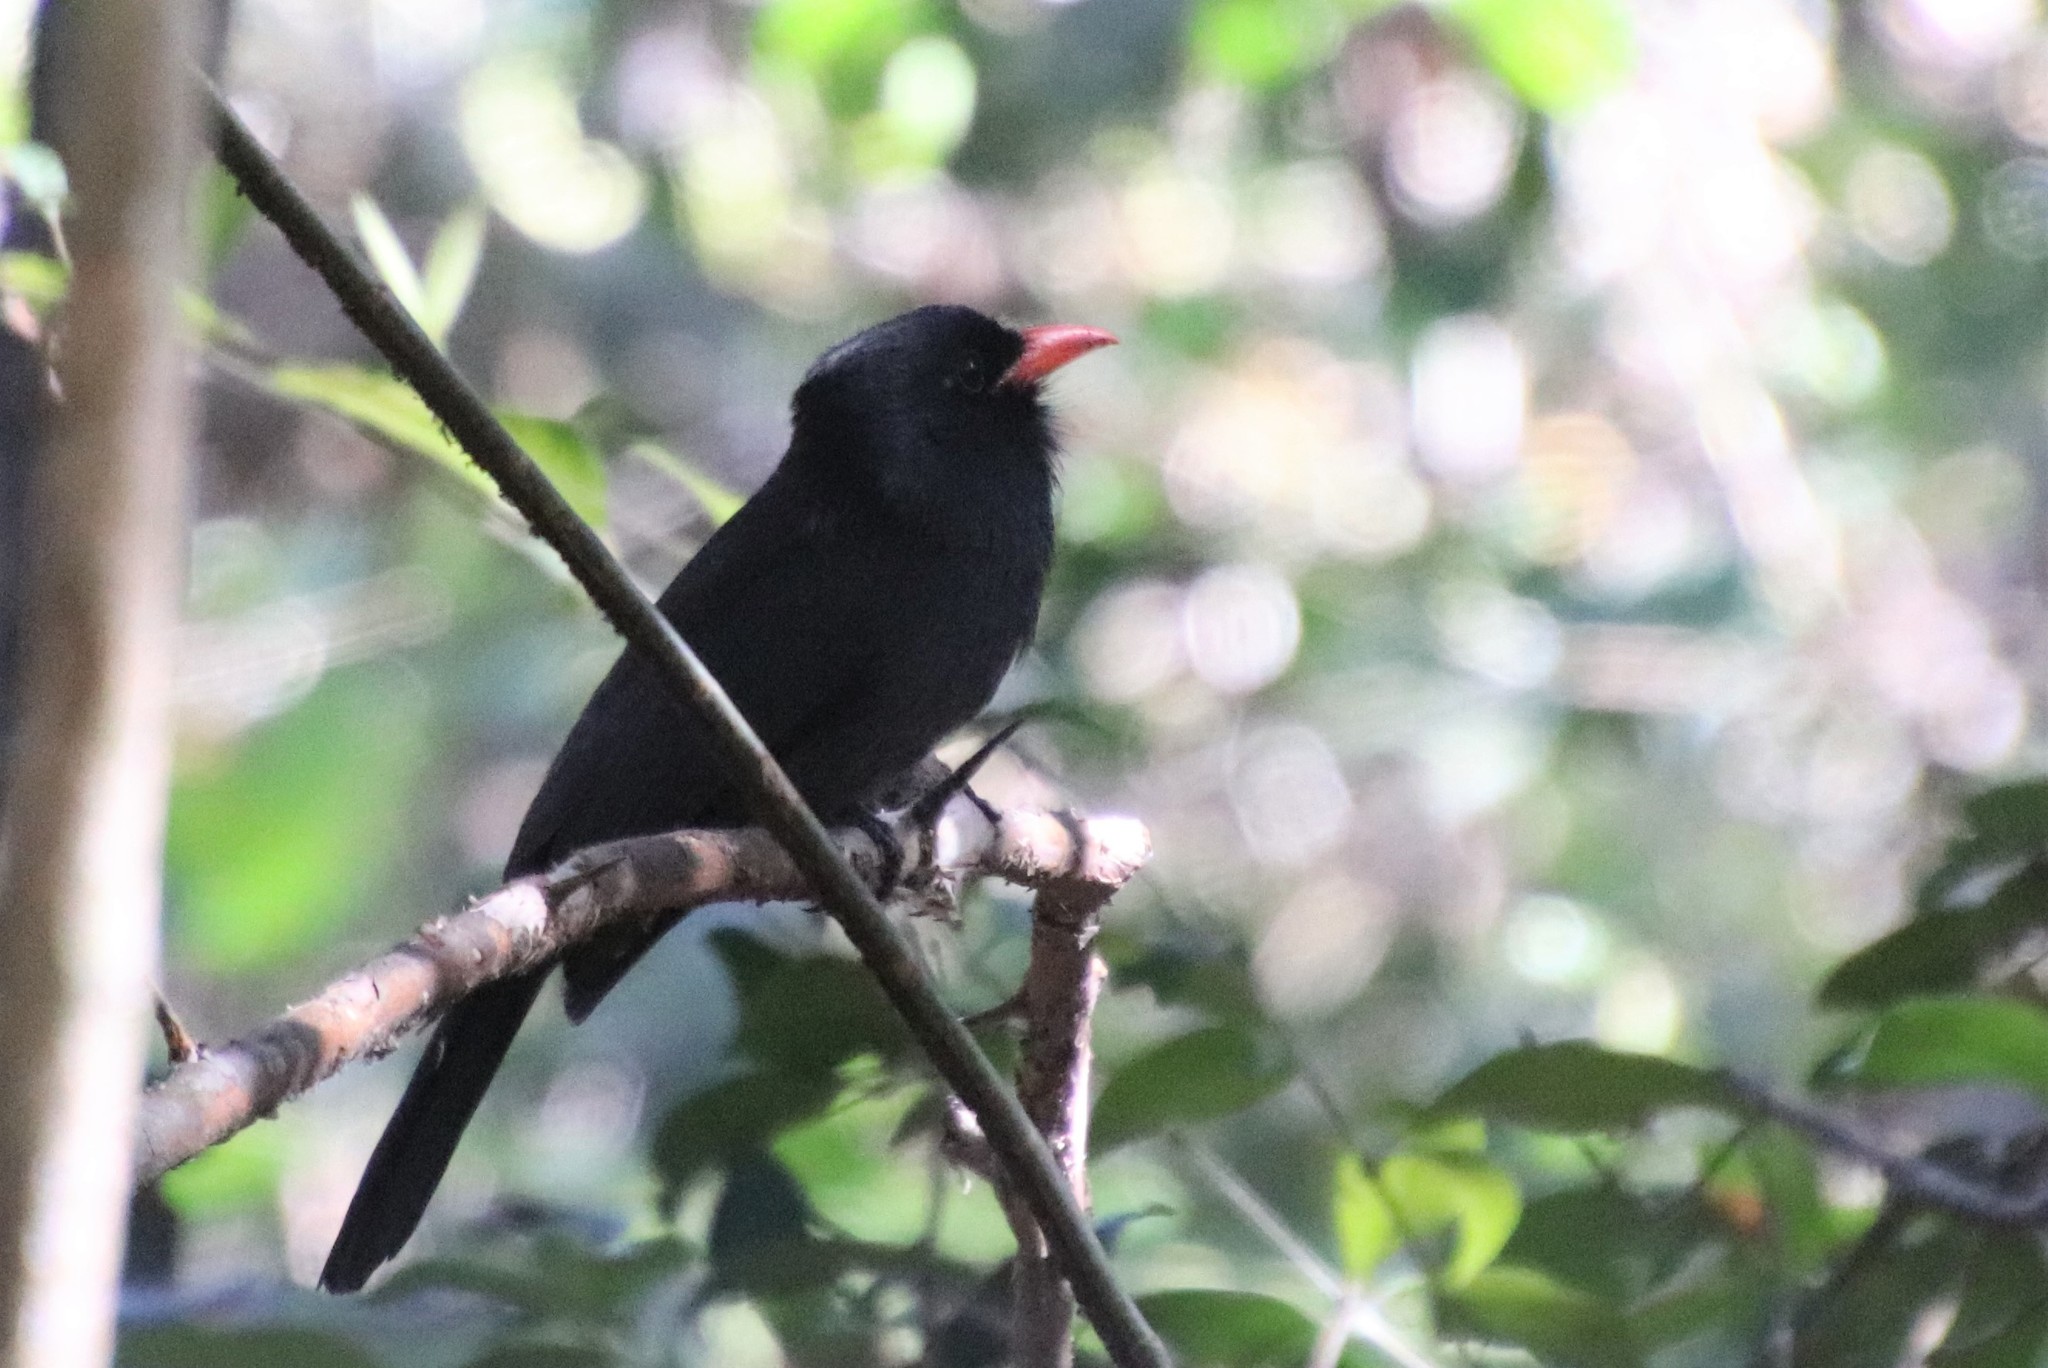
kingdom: Animalia
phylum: Chordata
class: Aves
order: Piciformes
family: Bucconidae
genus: Monasa
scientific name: Monasa nigrifrons
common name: Black-fronted nunbird
